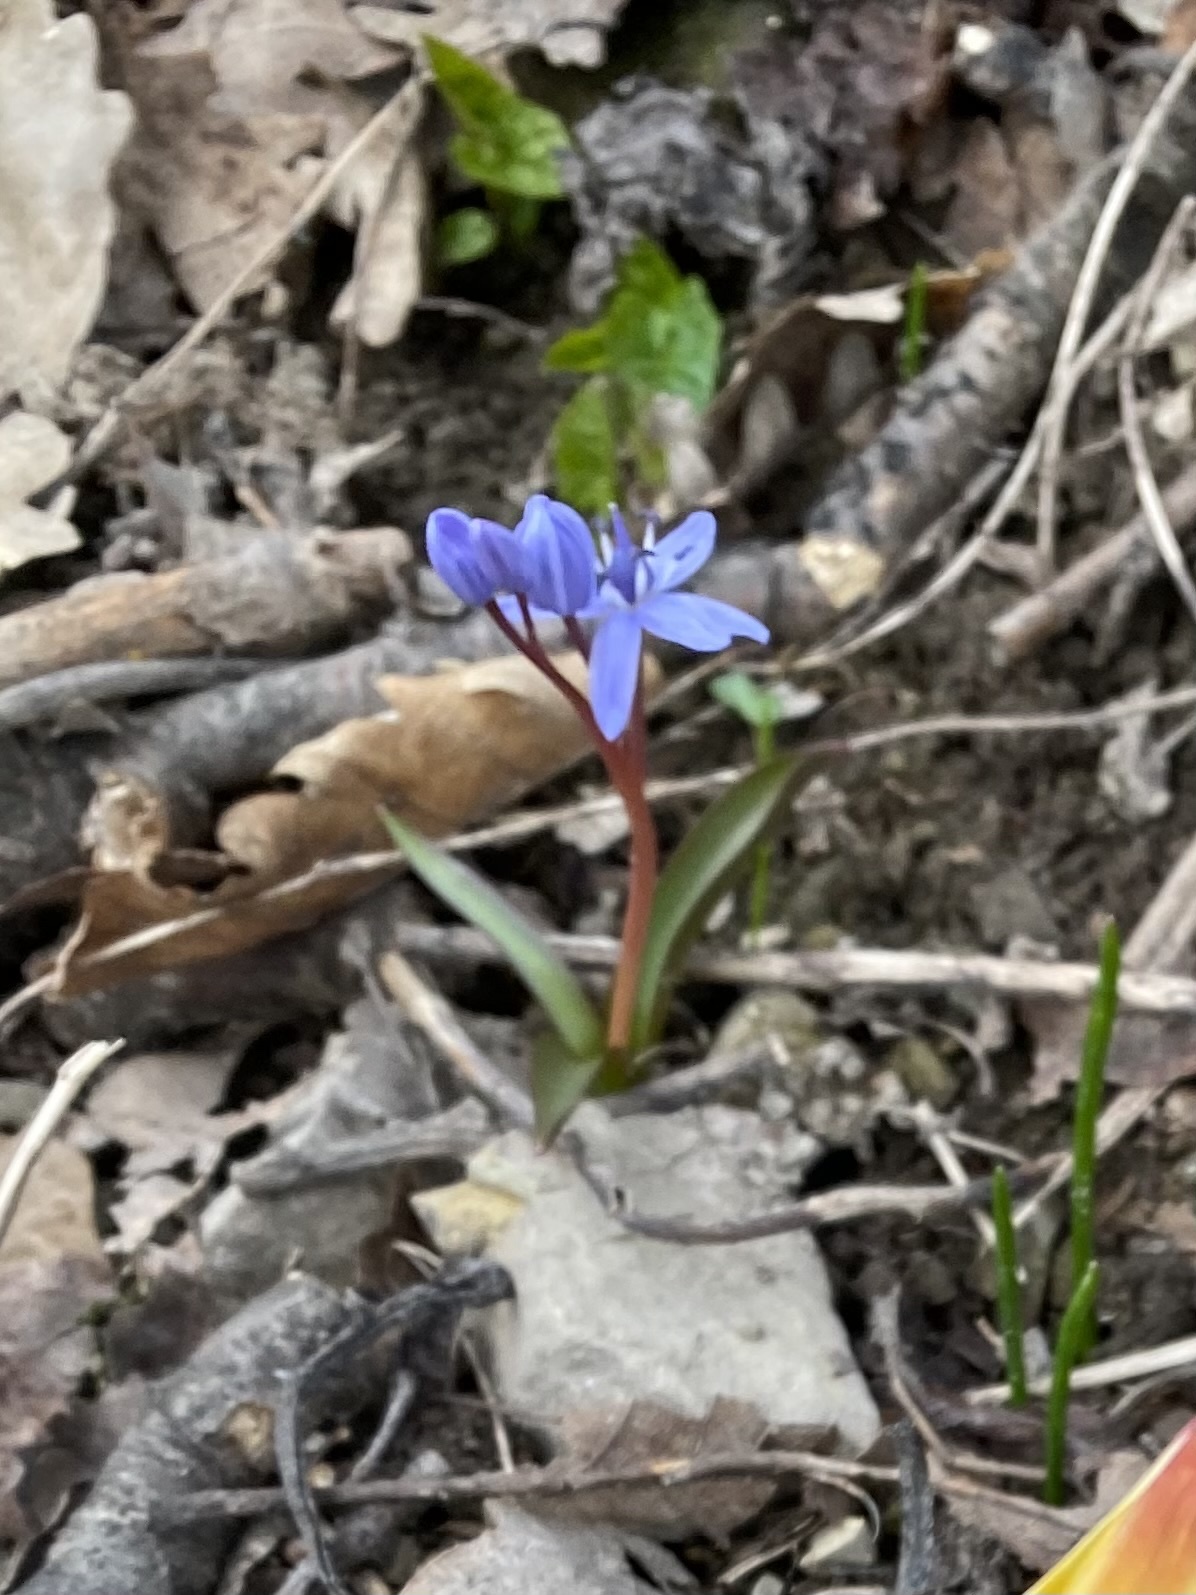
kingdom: Plantae
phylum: Tracheophyta
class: Liliopsida
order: Asparagales
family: Asparagaceae
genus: Scilla
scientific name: Scilla bifolia
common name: Alpine squill
